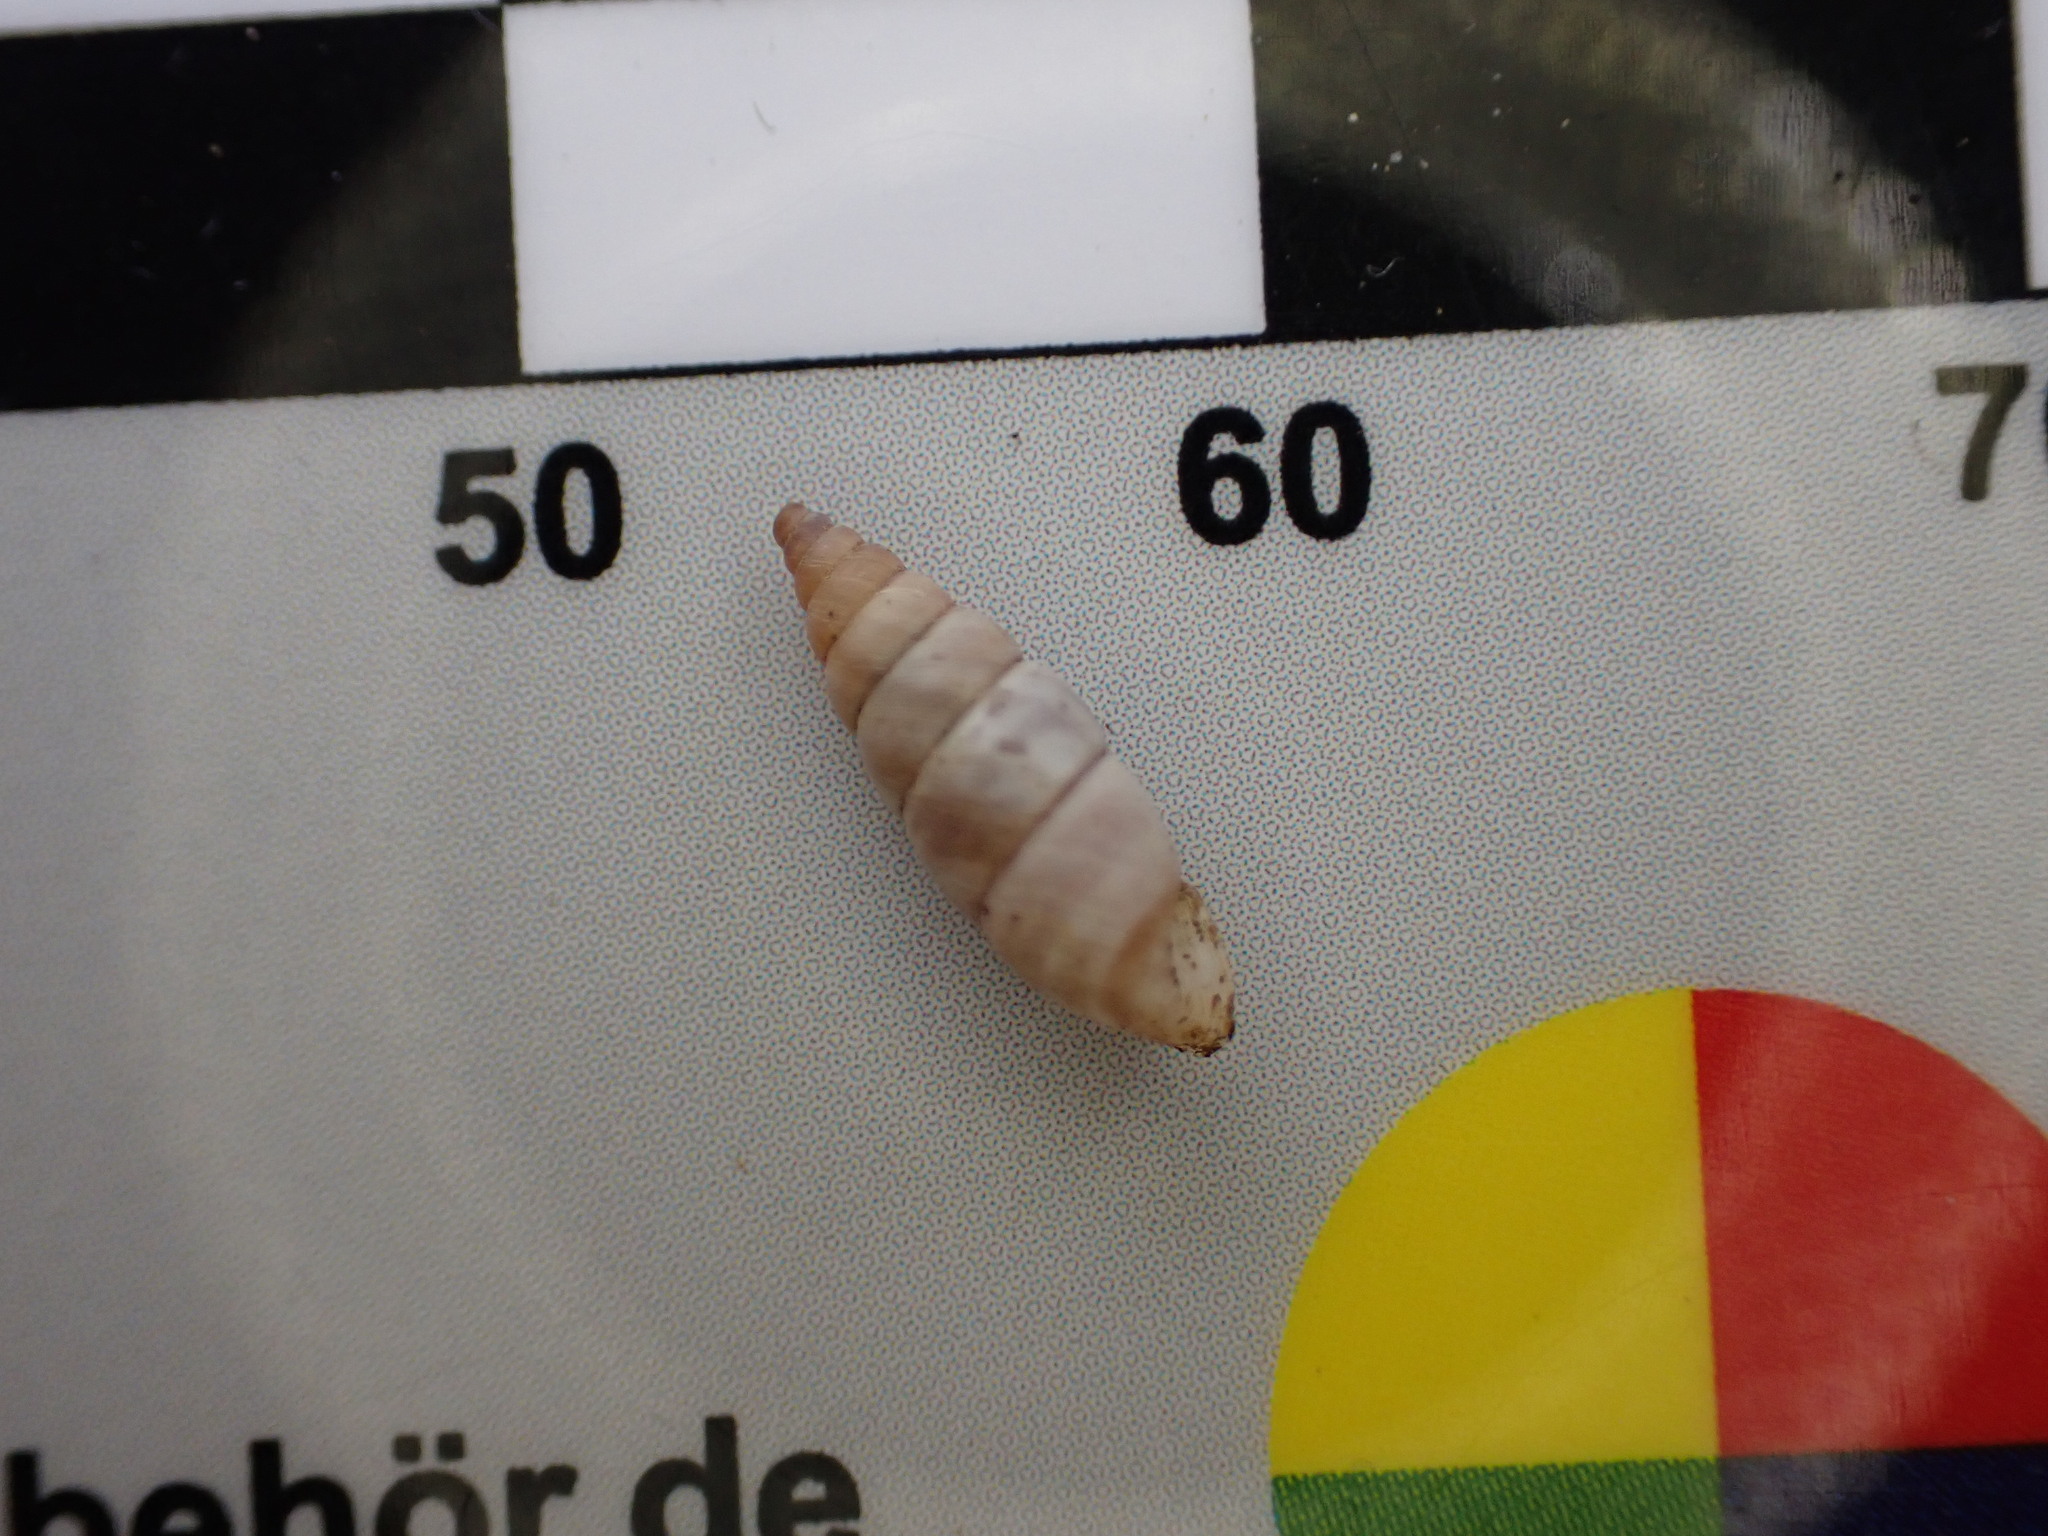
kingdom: Animalia
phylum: Mollusca
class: Gastropoda
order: Stylommatophora
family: Chondrinidae
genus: Solatopupa
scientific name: Solatopupa similis
